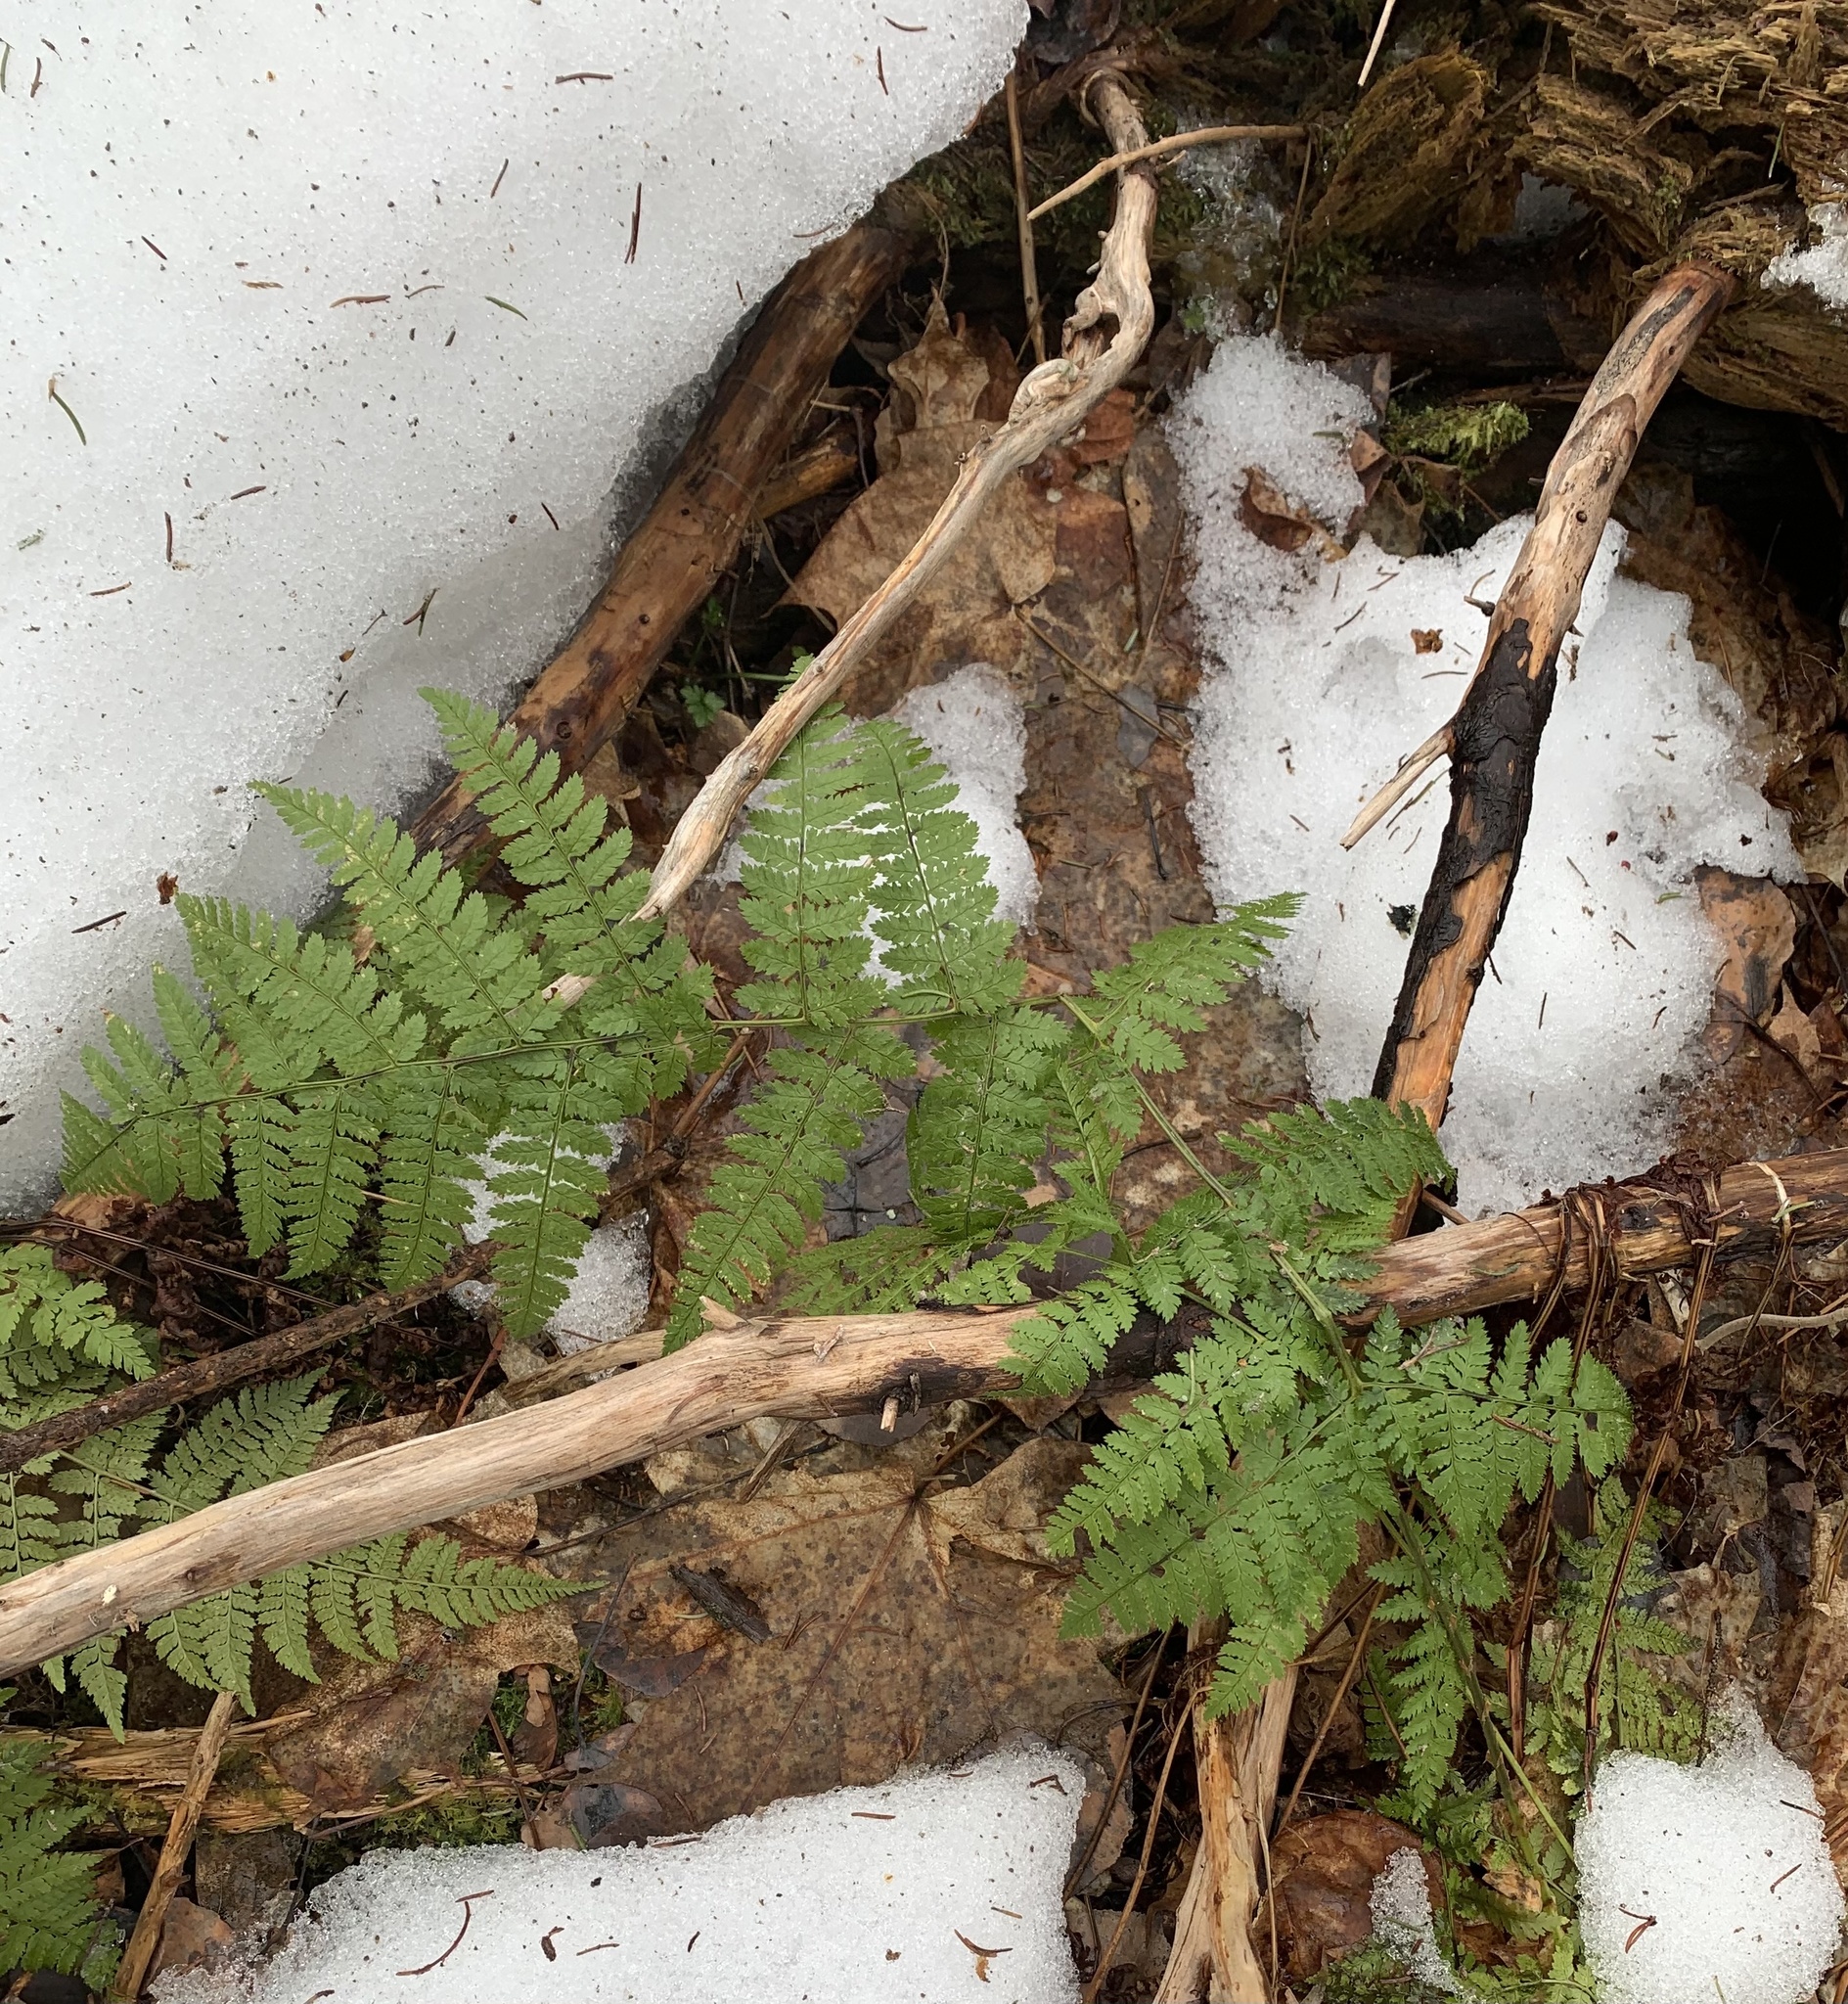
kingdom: Plantae
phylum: Tracheophyta
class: Polypodiopsida
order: Polypodiales
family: Dryopteridaceae
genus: Dryopteris
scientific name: Dryopteris intermedia
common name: Evergreen wood fern
